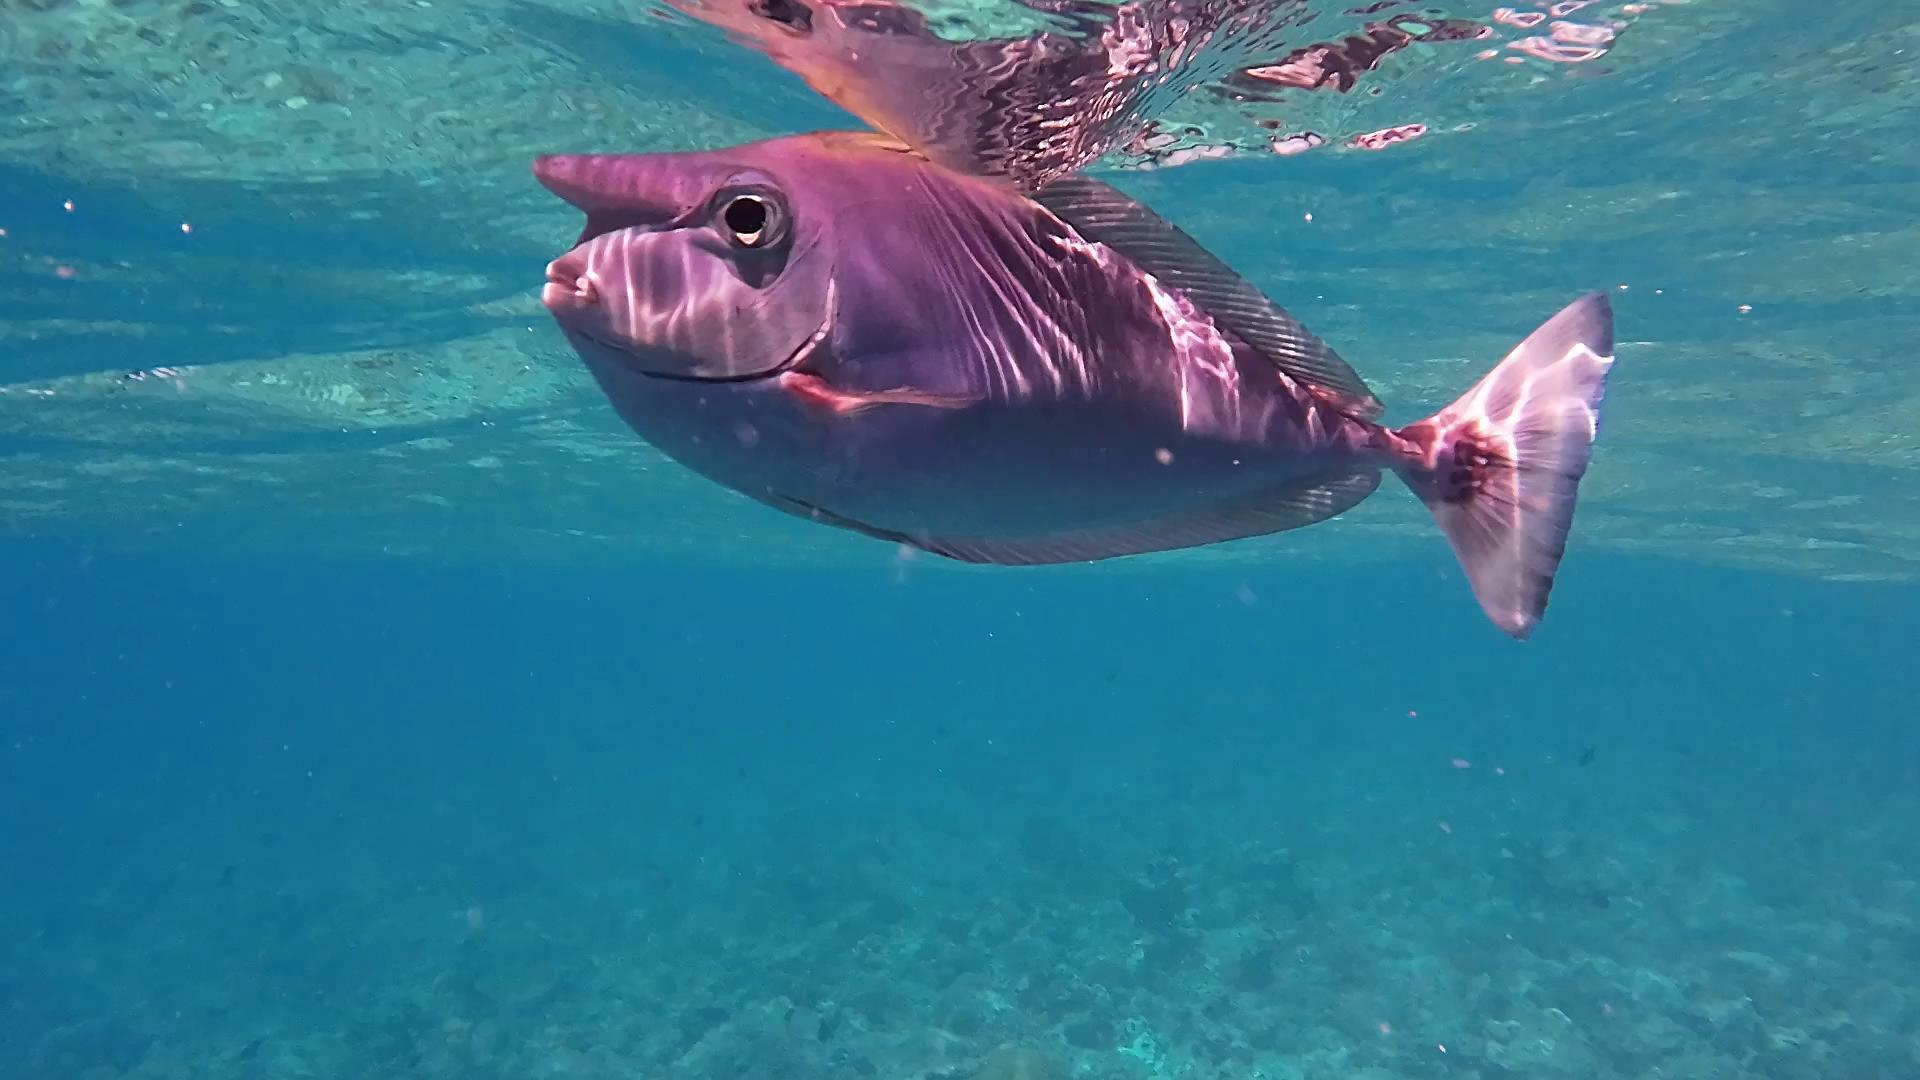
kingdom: Animalia
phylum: Chordata
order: Perciformes
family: Acanthuridae
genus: Naso
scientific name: Naso brevirostris
